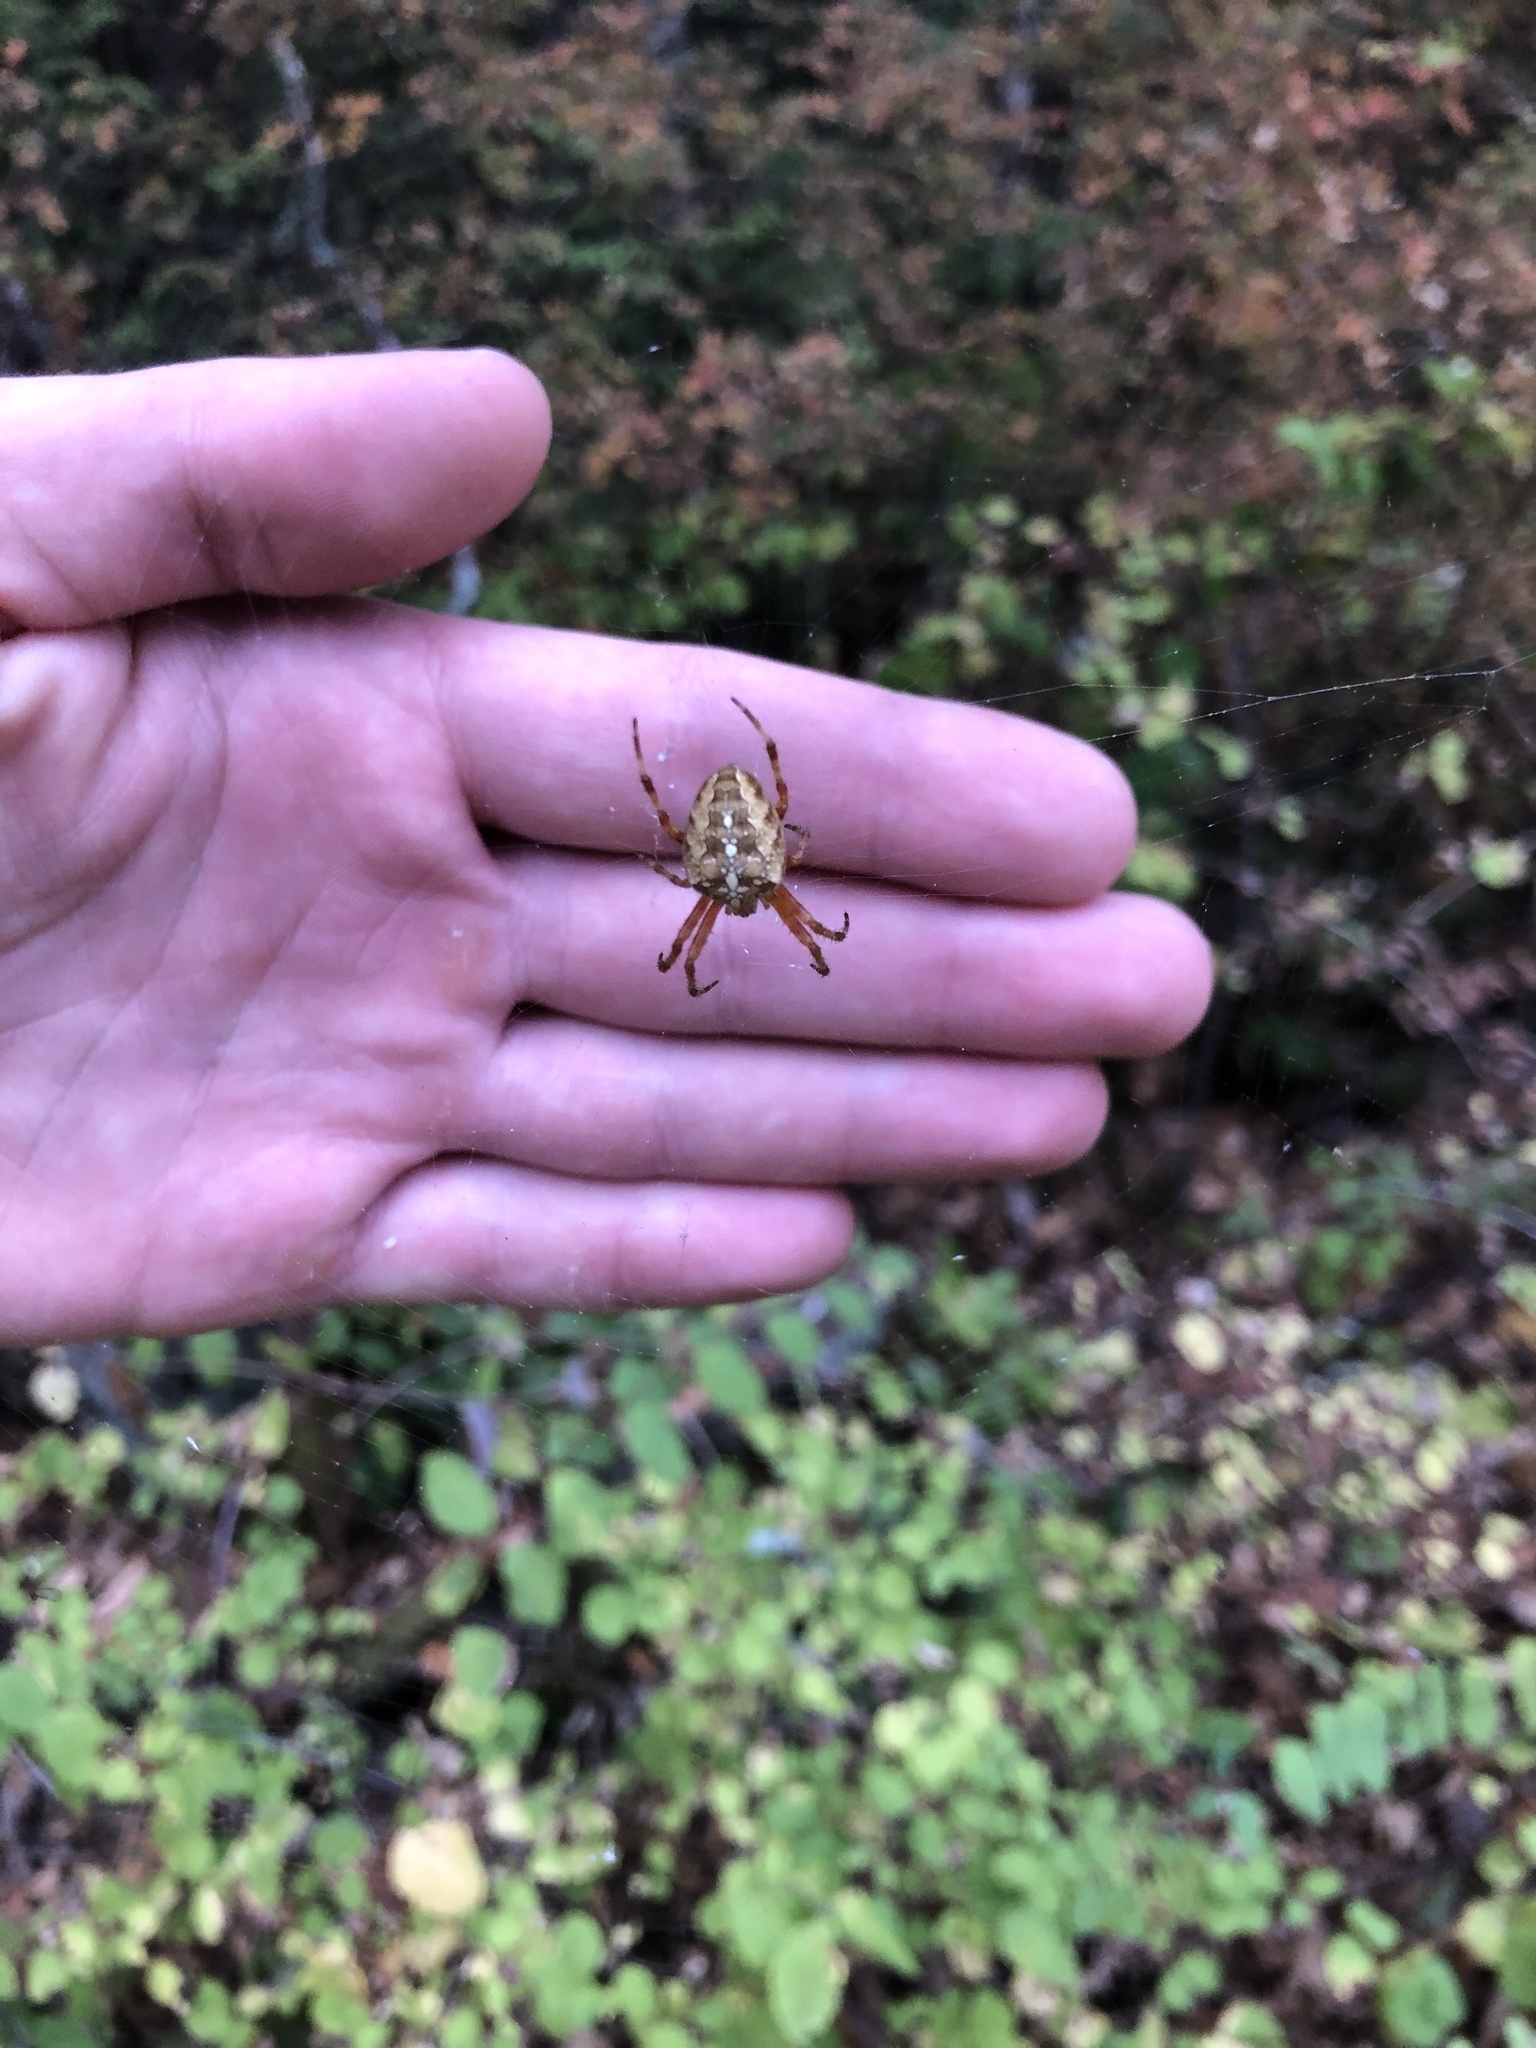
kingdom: Animalia
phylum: Arthropoda
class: Arachnida
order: Araneae
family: Araneidae
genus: Araneus
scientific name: Araneus diadematus
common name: Cross orbweaver
